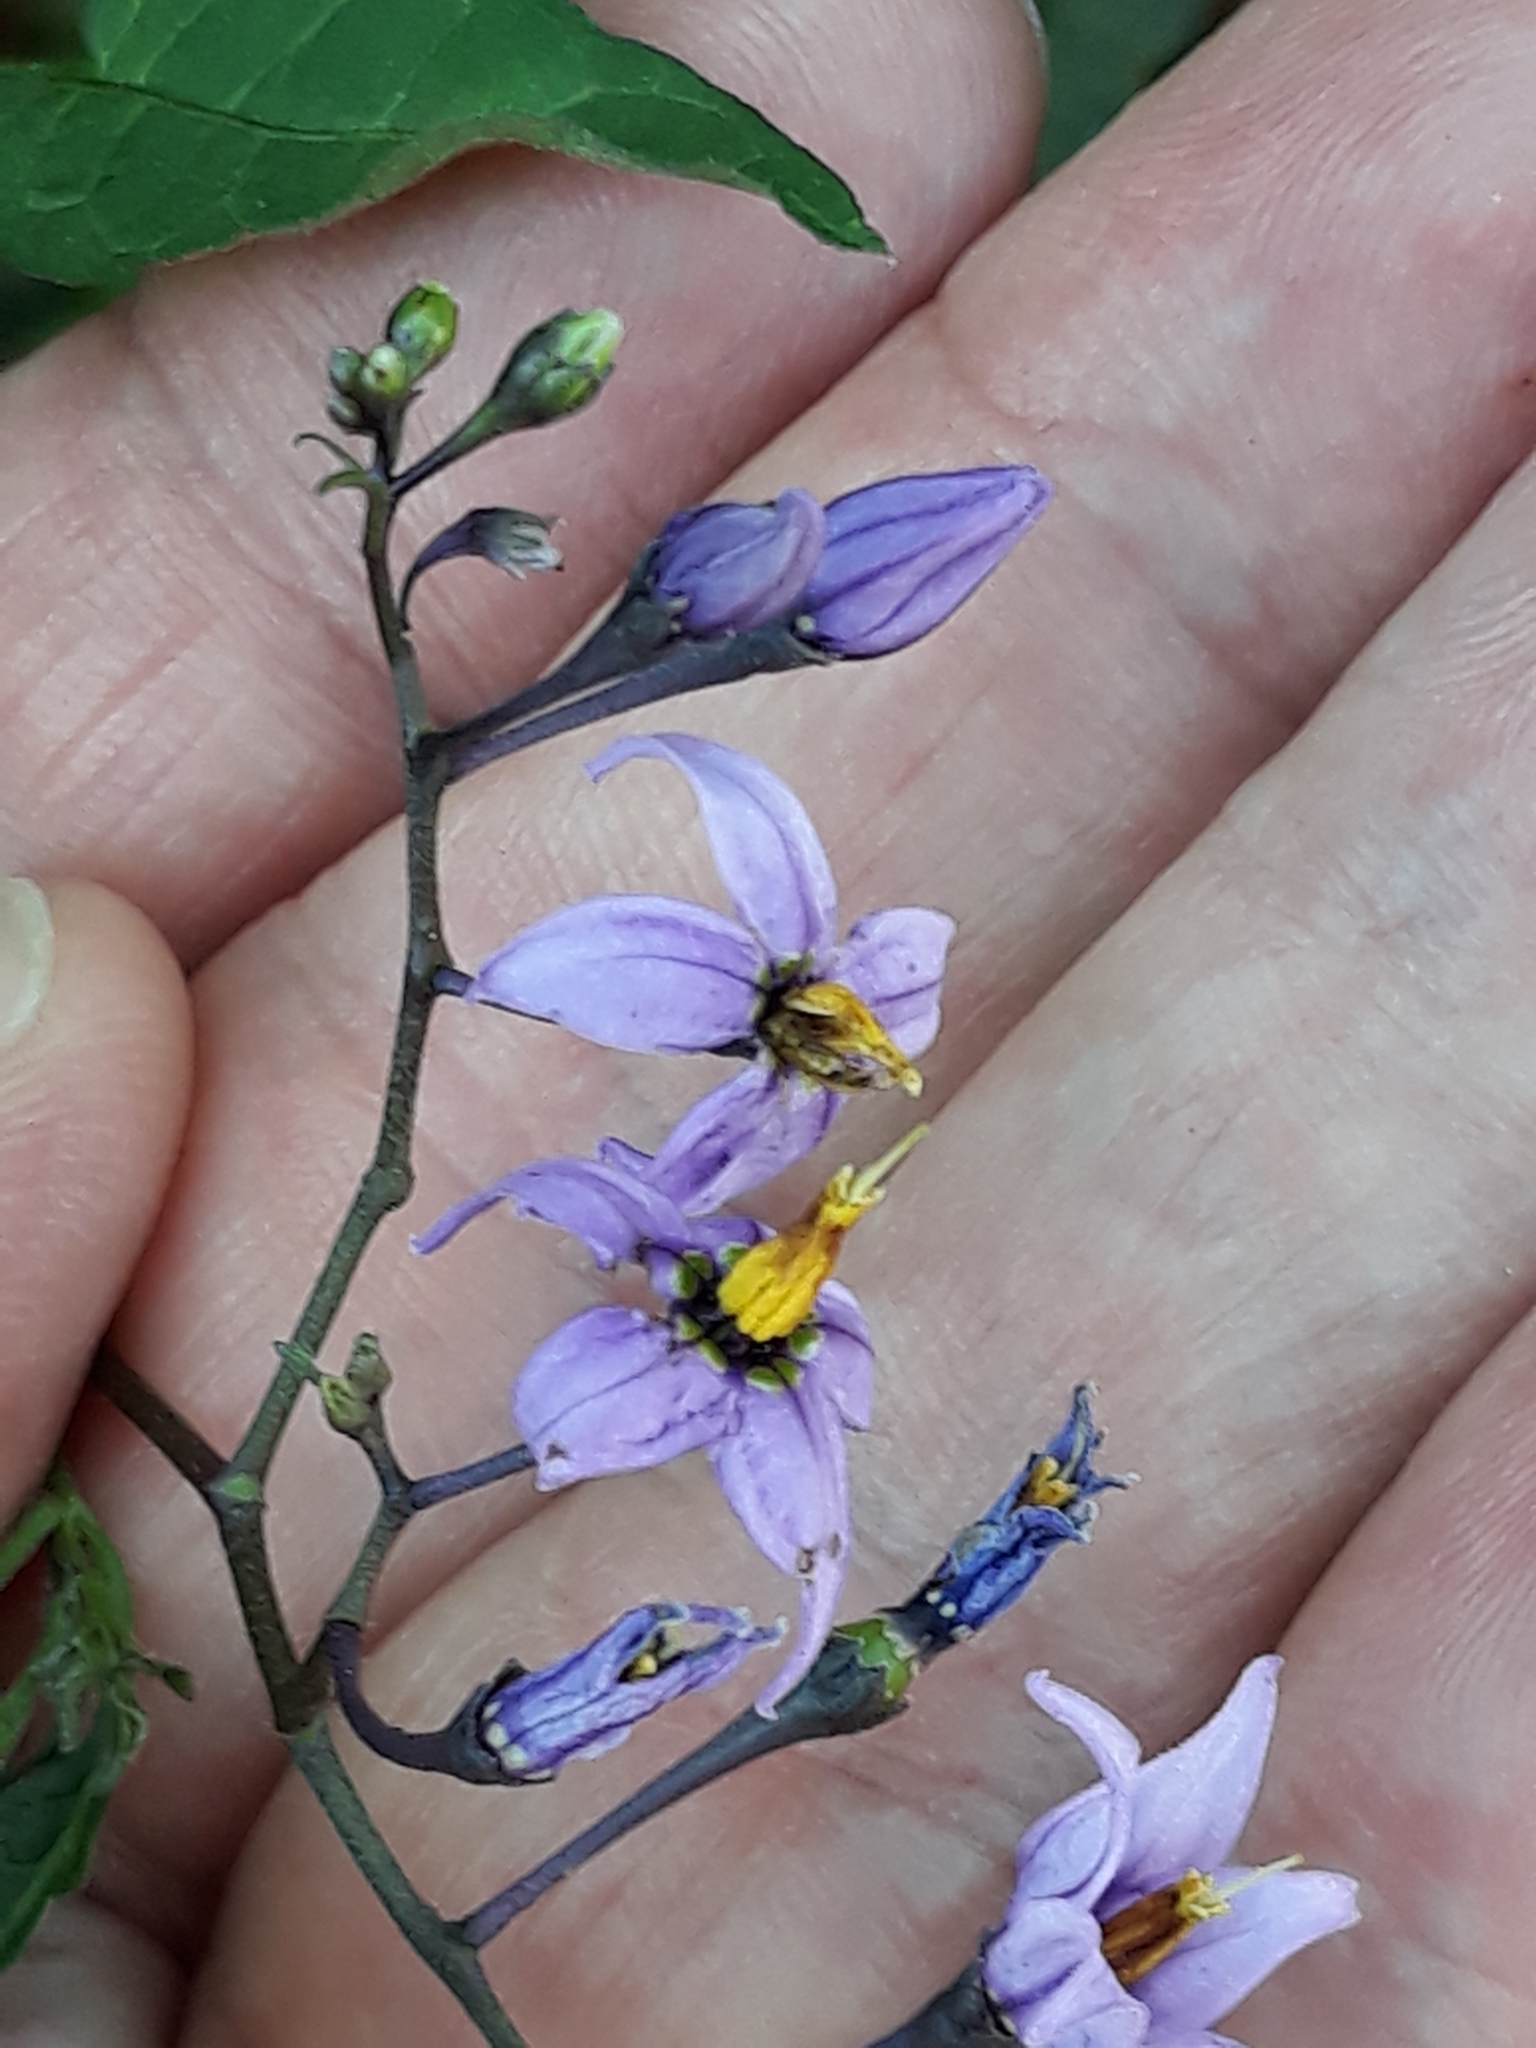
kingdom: Plantae
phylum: Tracheophyta
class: Magnoliopsida
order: Solanales
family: Solanaceae
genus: Solanum
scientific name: Solanum dulcamara
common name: Climbing nightshade
